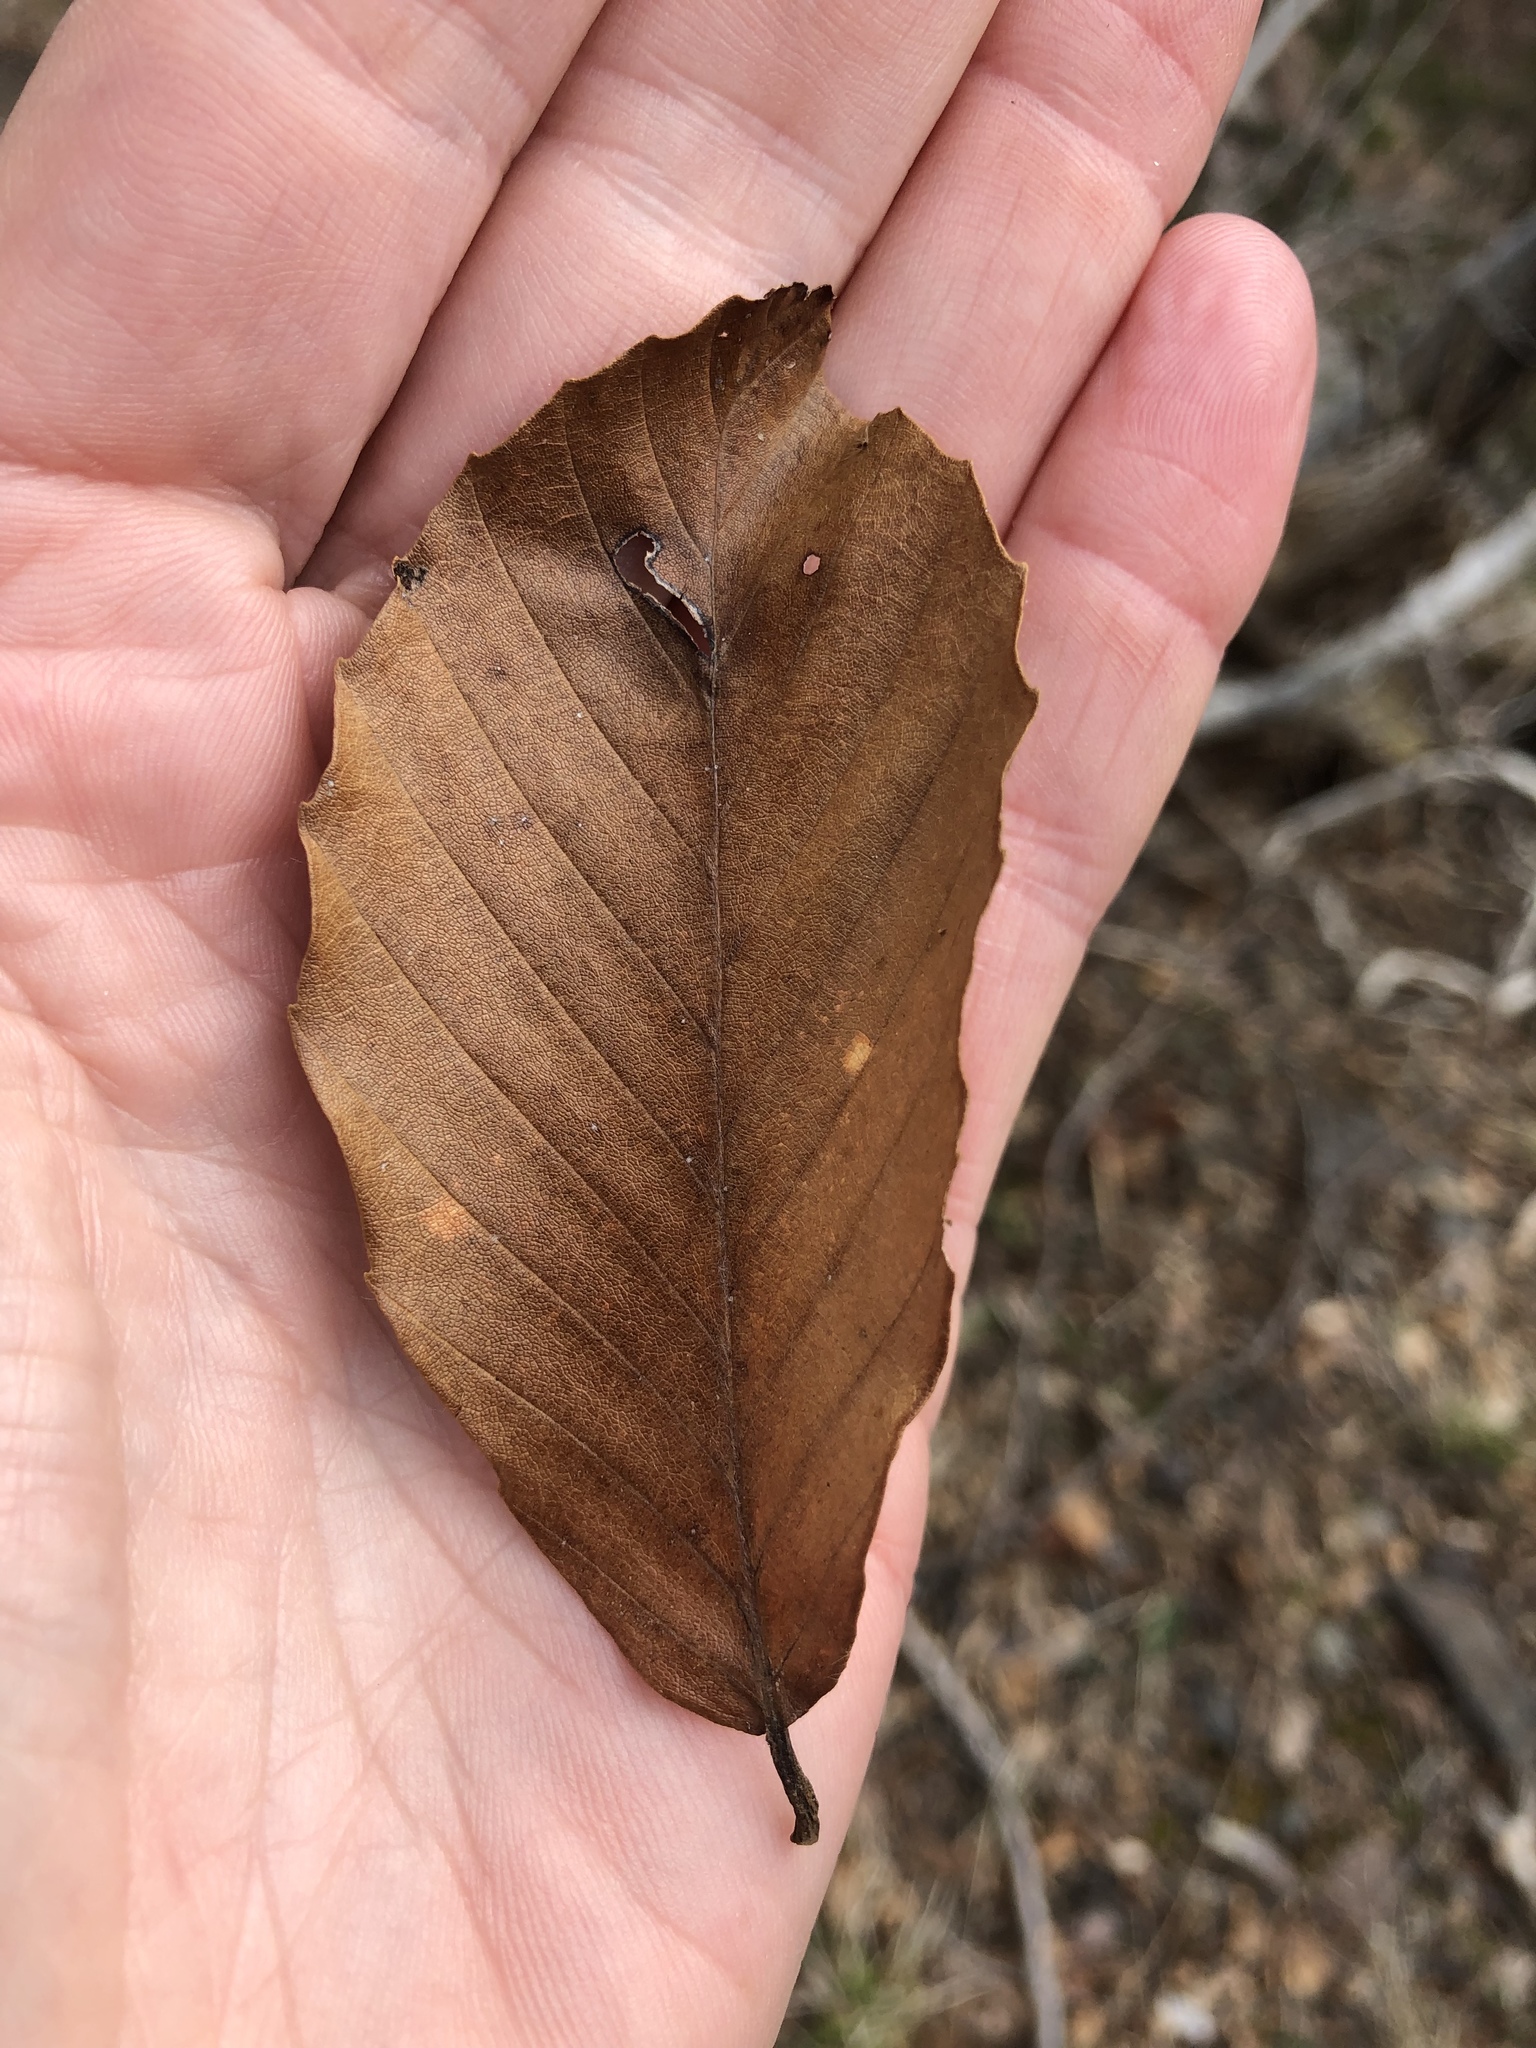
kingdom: Plantae
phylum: Tracheophyta
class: Magnoliopsida
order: Fagales
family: Fagaceae
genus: Fagus
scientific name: Fagus grandifolia
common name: American beech
